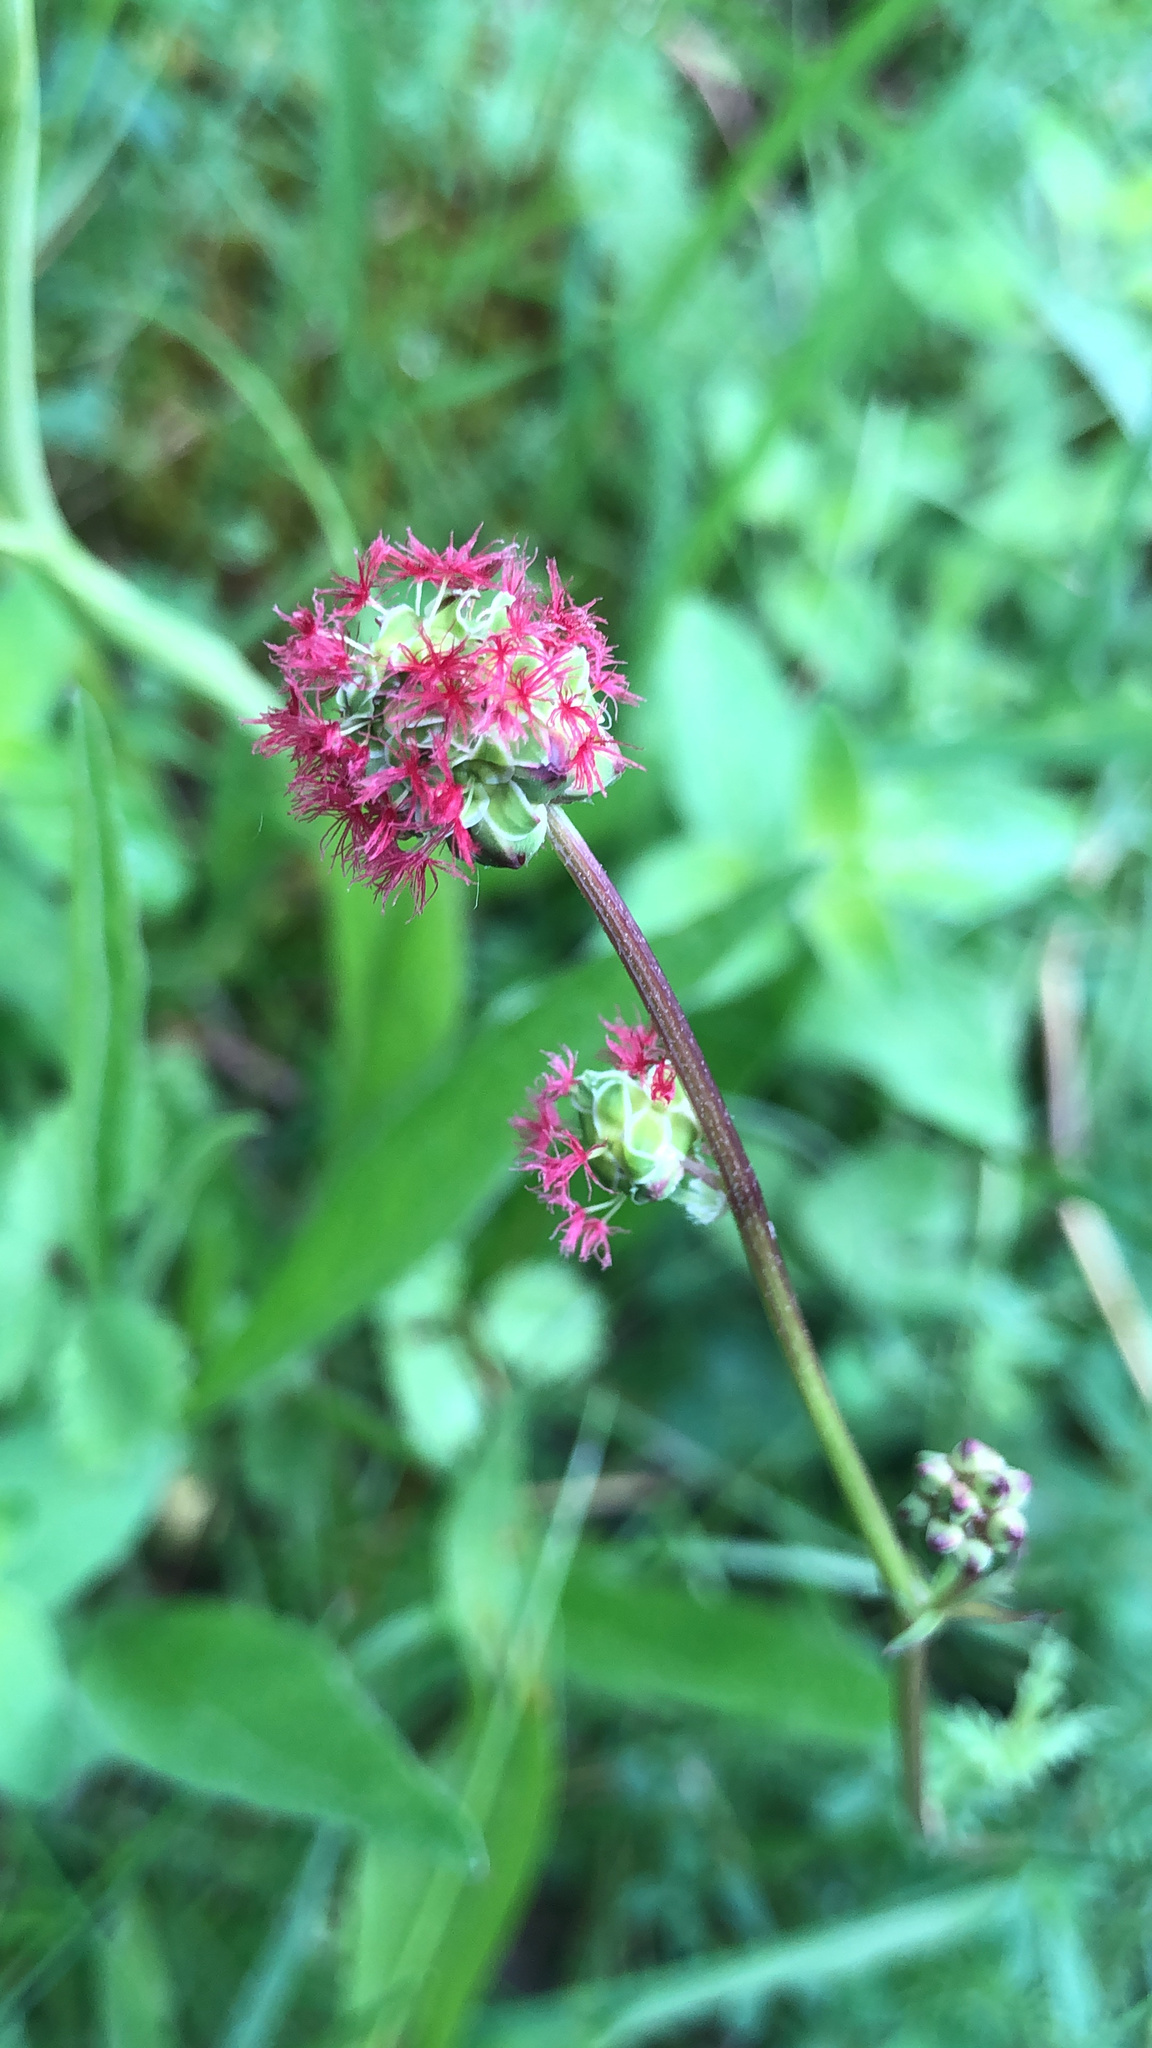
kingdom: Plantae
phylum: Tracheophyta
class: Magnoliopsida
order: Rosales
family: Rosaceae
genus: Poterium
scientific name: Poterium sanguisorba
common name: Salad burnet
